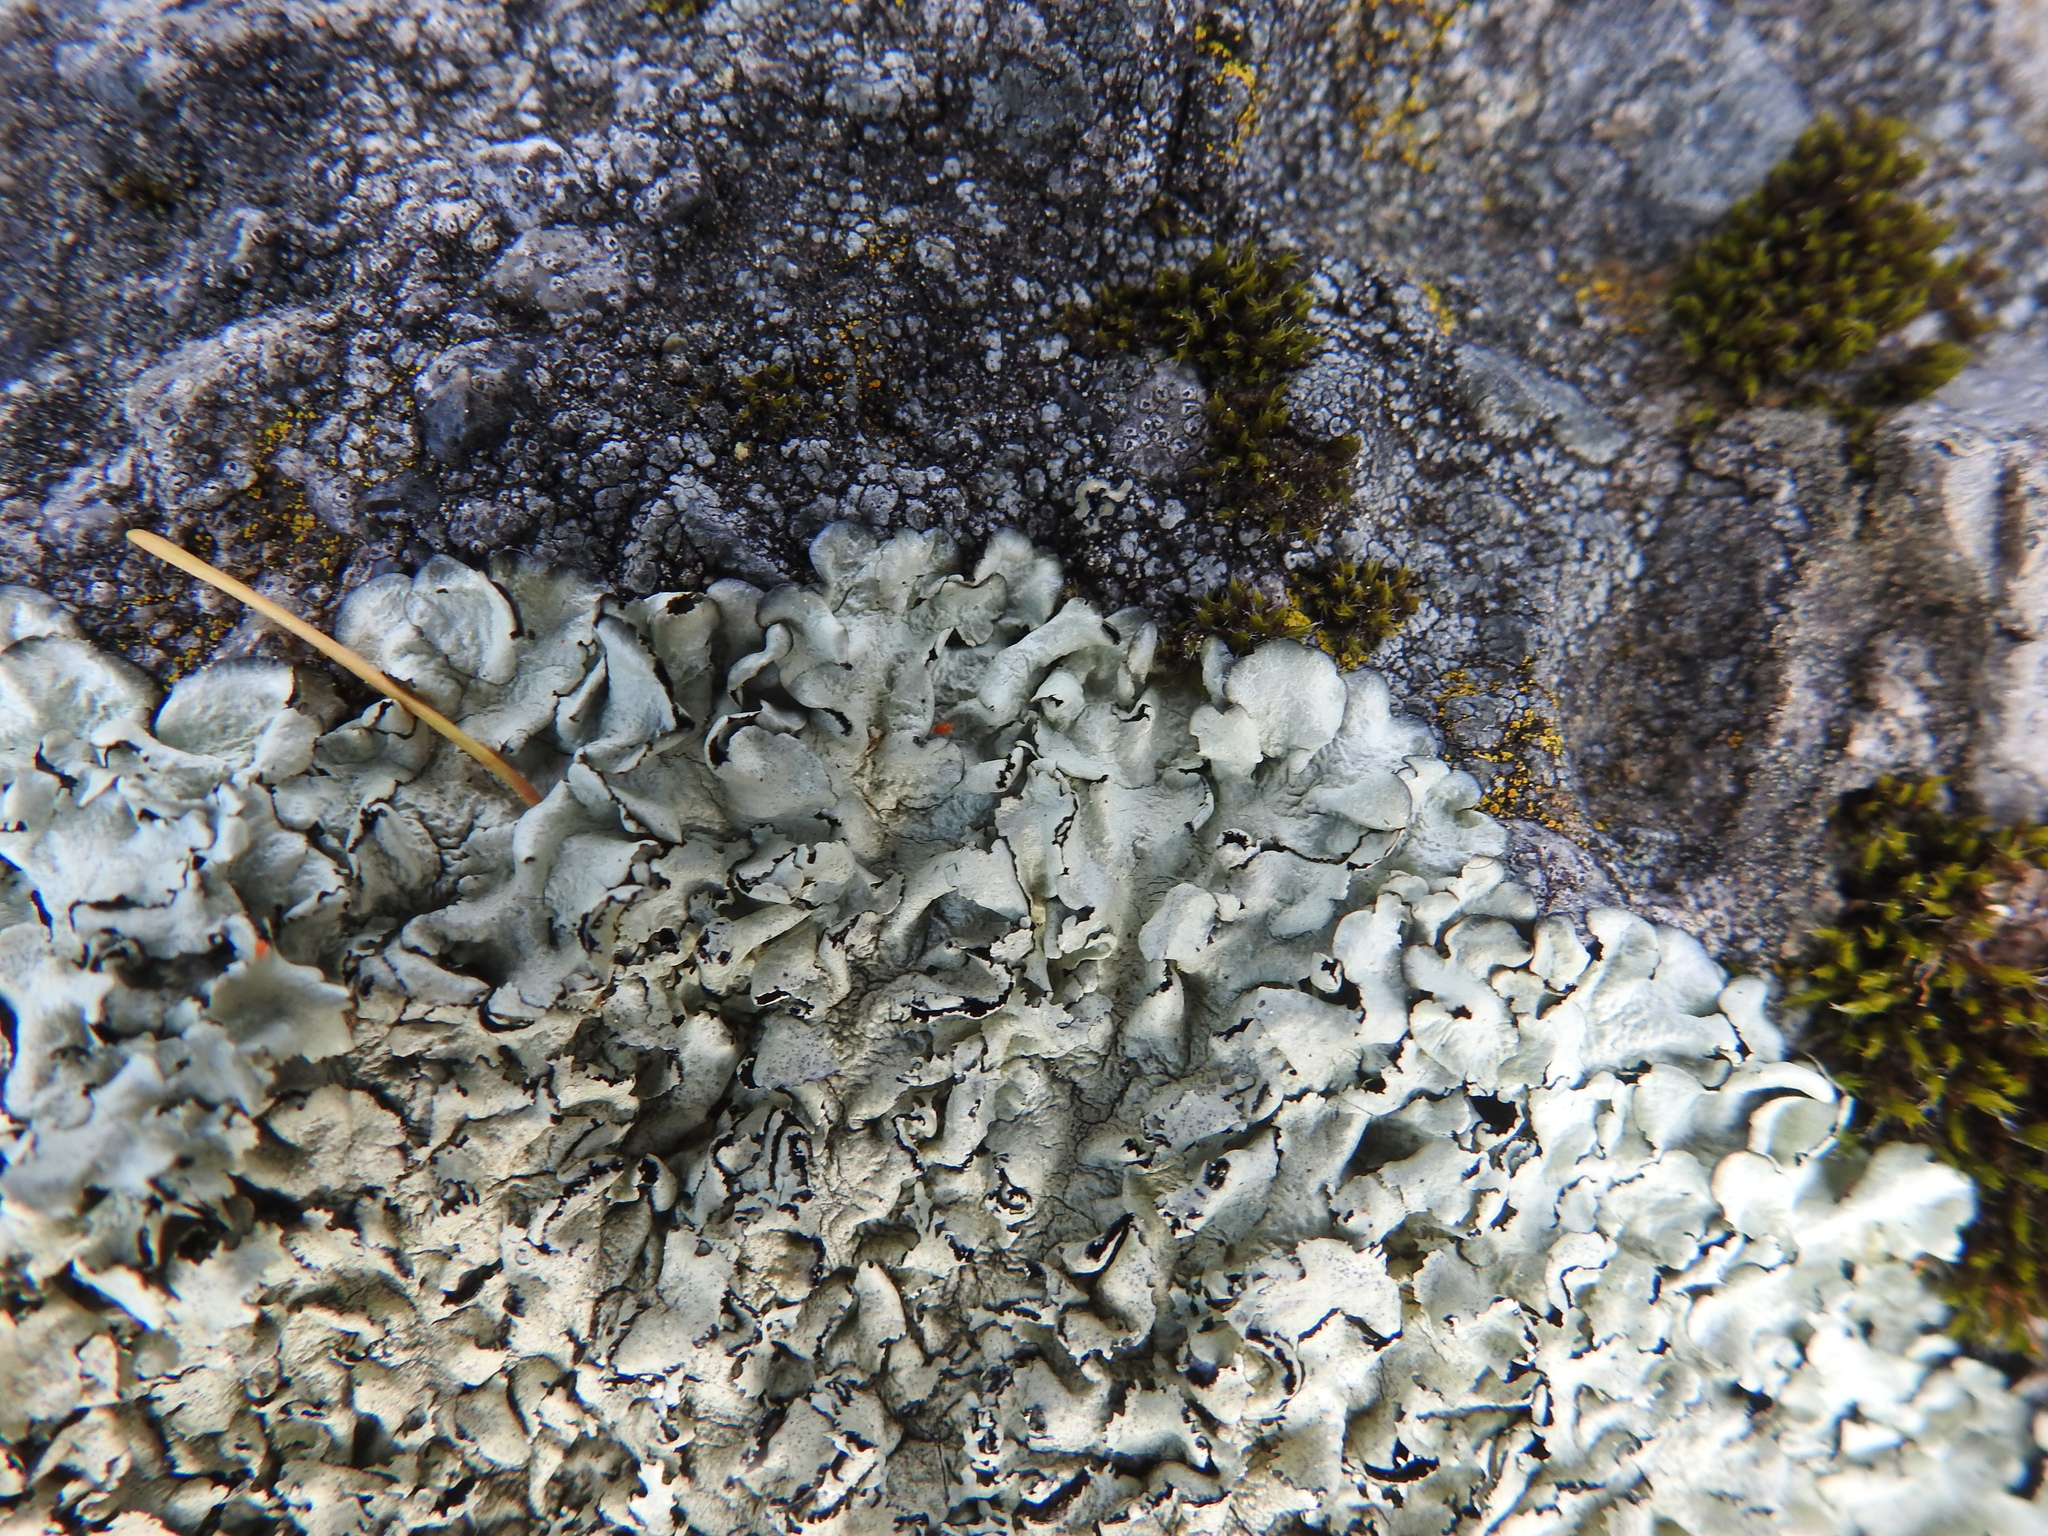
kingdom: Fungi
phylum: Ascomycota
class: Lecanoromycetes
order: Lecanorales
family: Parmeliaceae
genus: Xanthoparmelia
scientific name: Xanthoparmelia cumberlandia
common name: Cumberland rock shield
